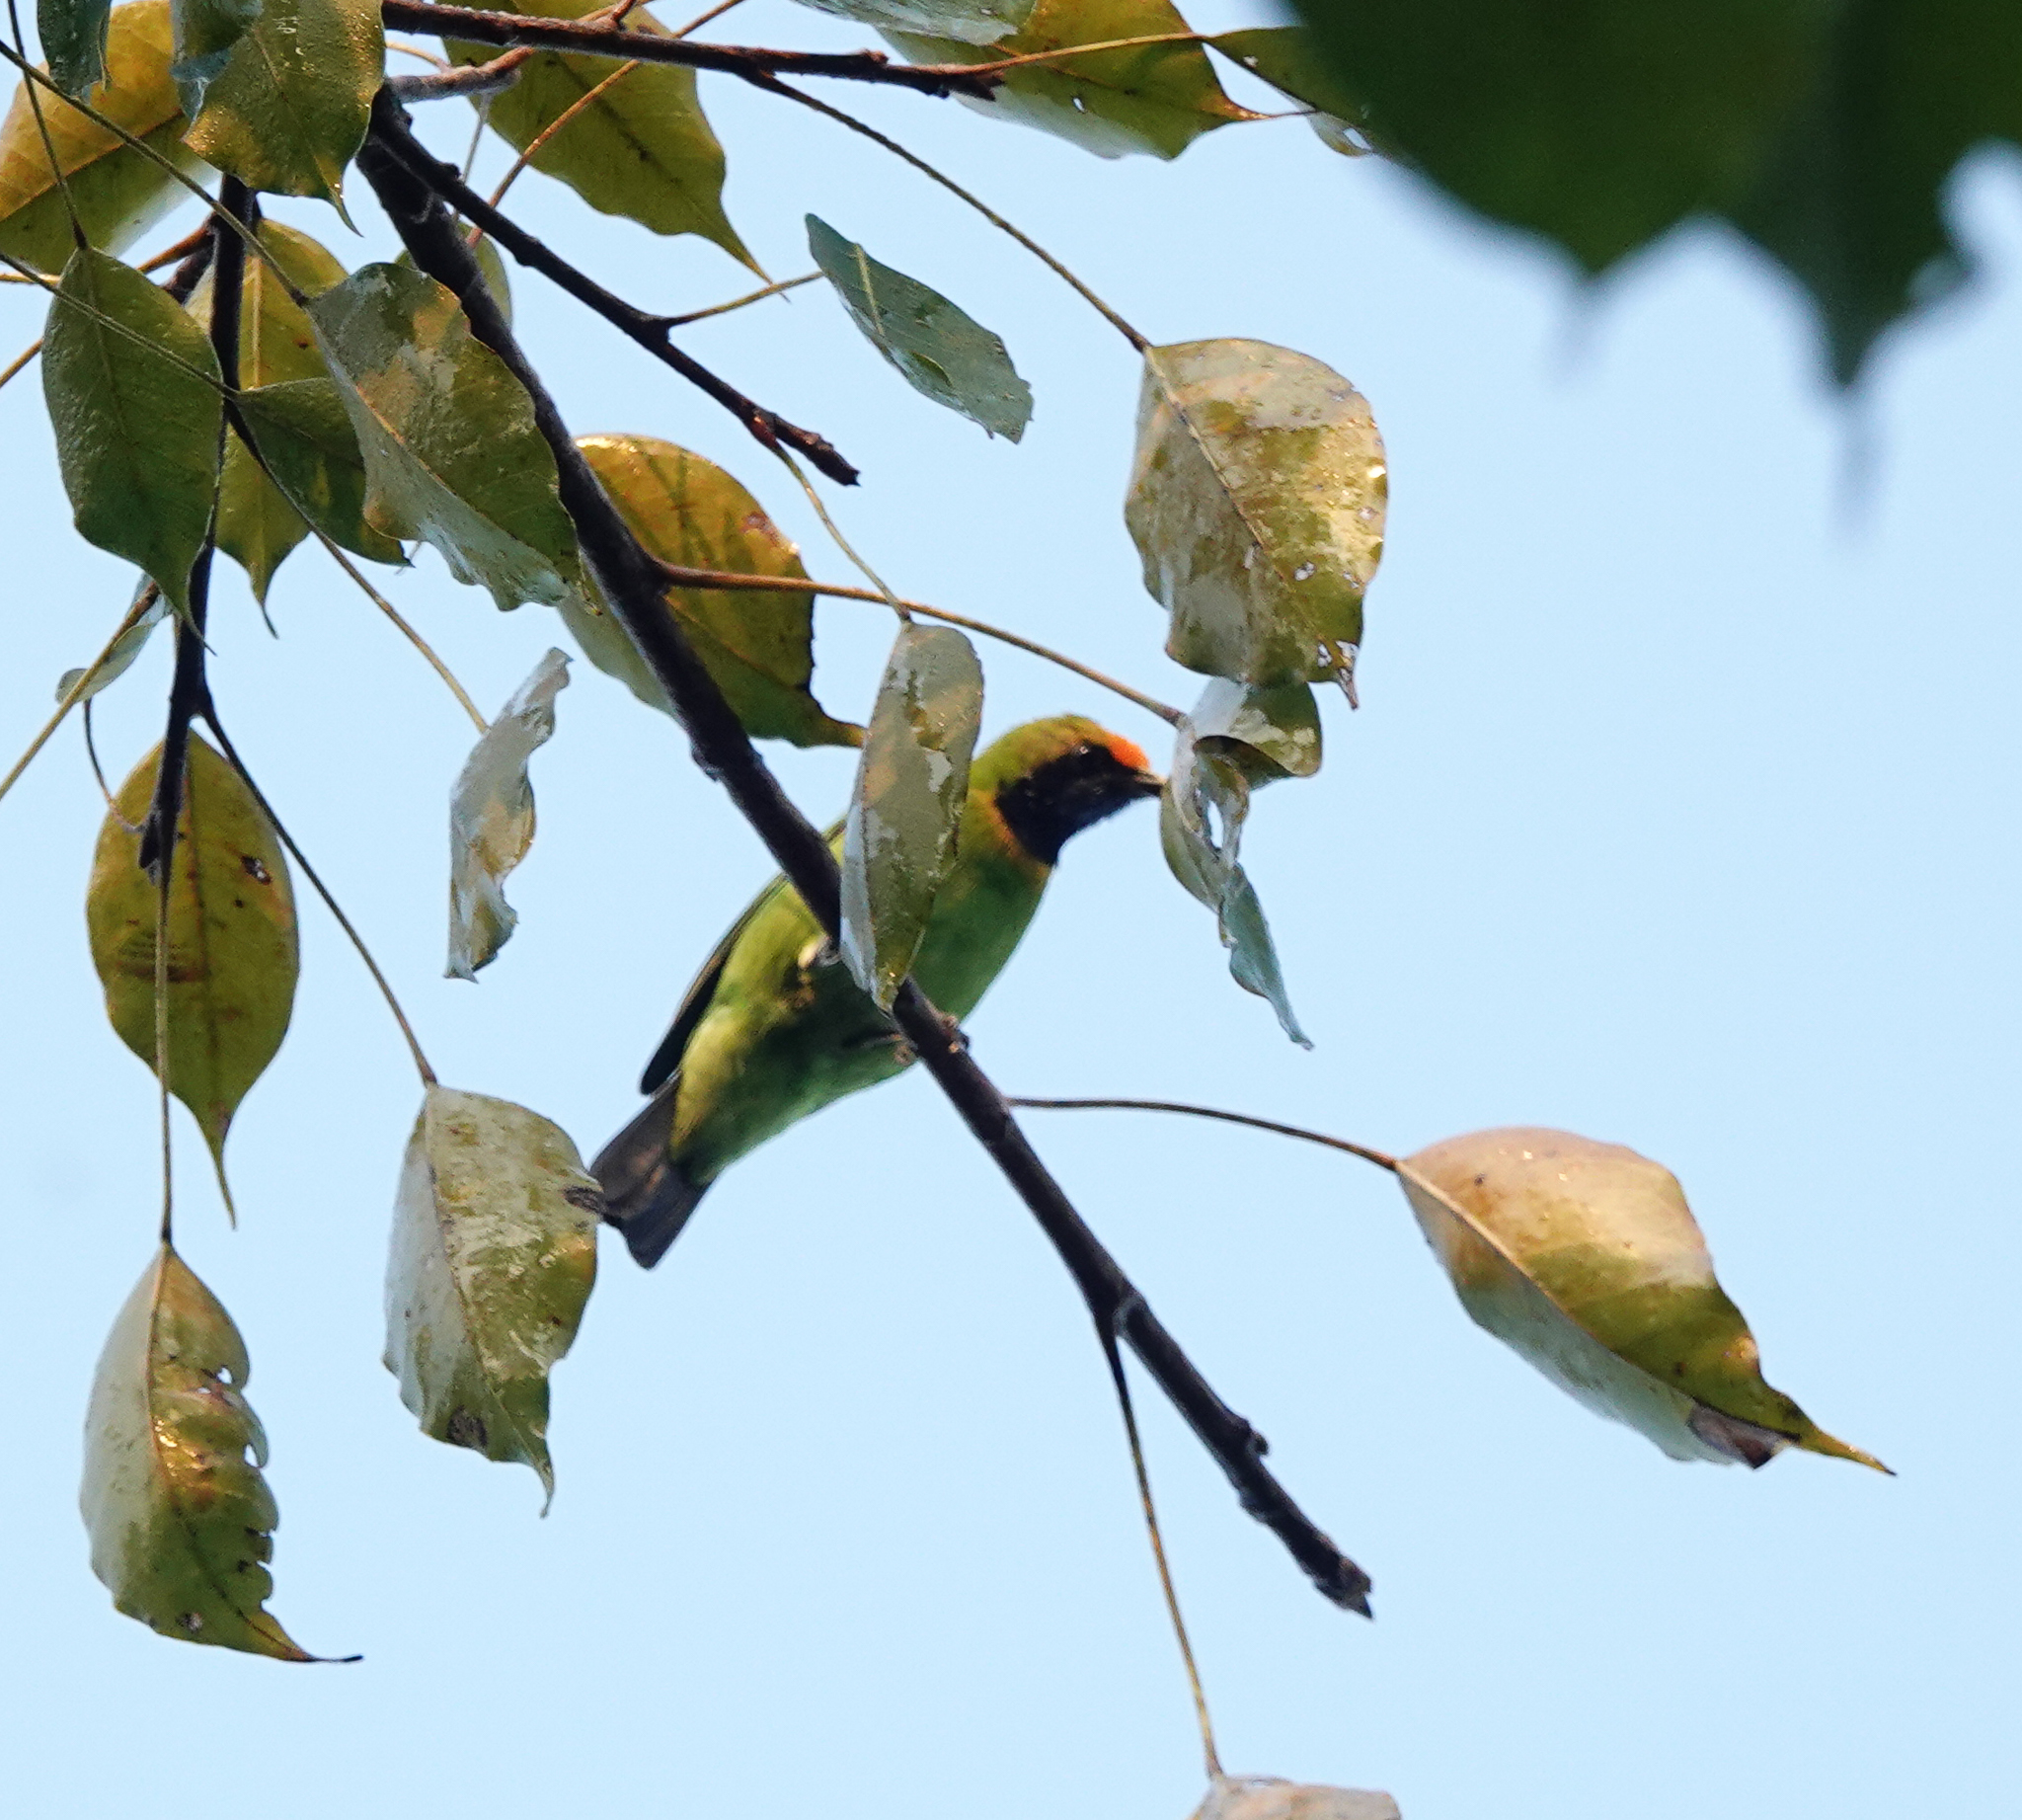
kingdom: Animalia
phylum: Chordata
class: Aves
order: Passeriformes
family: Chloropseidae
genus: Chloropsis
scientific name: Chloropsis aurifrons
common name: Golden-fronted leafbird
